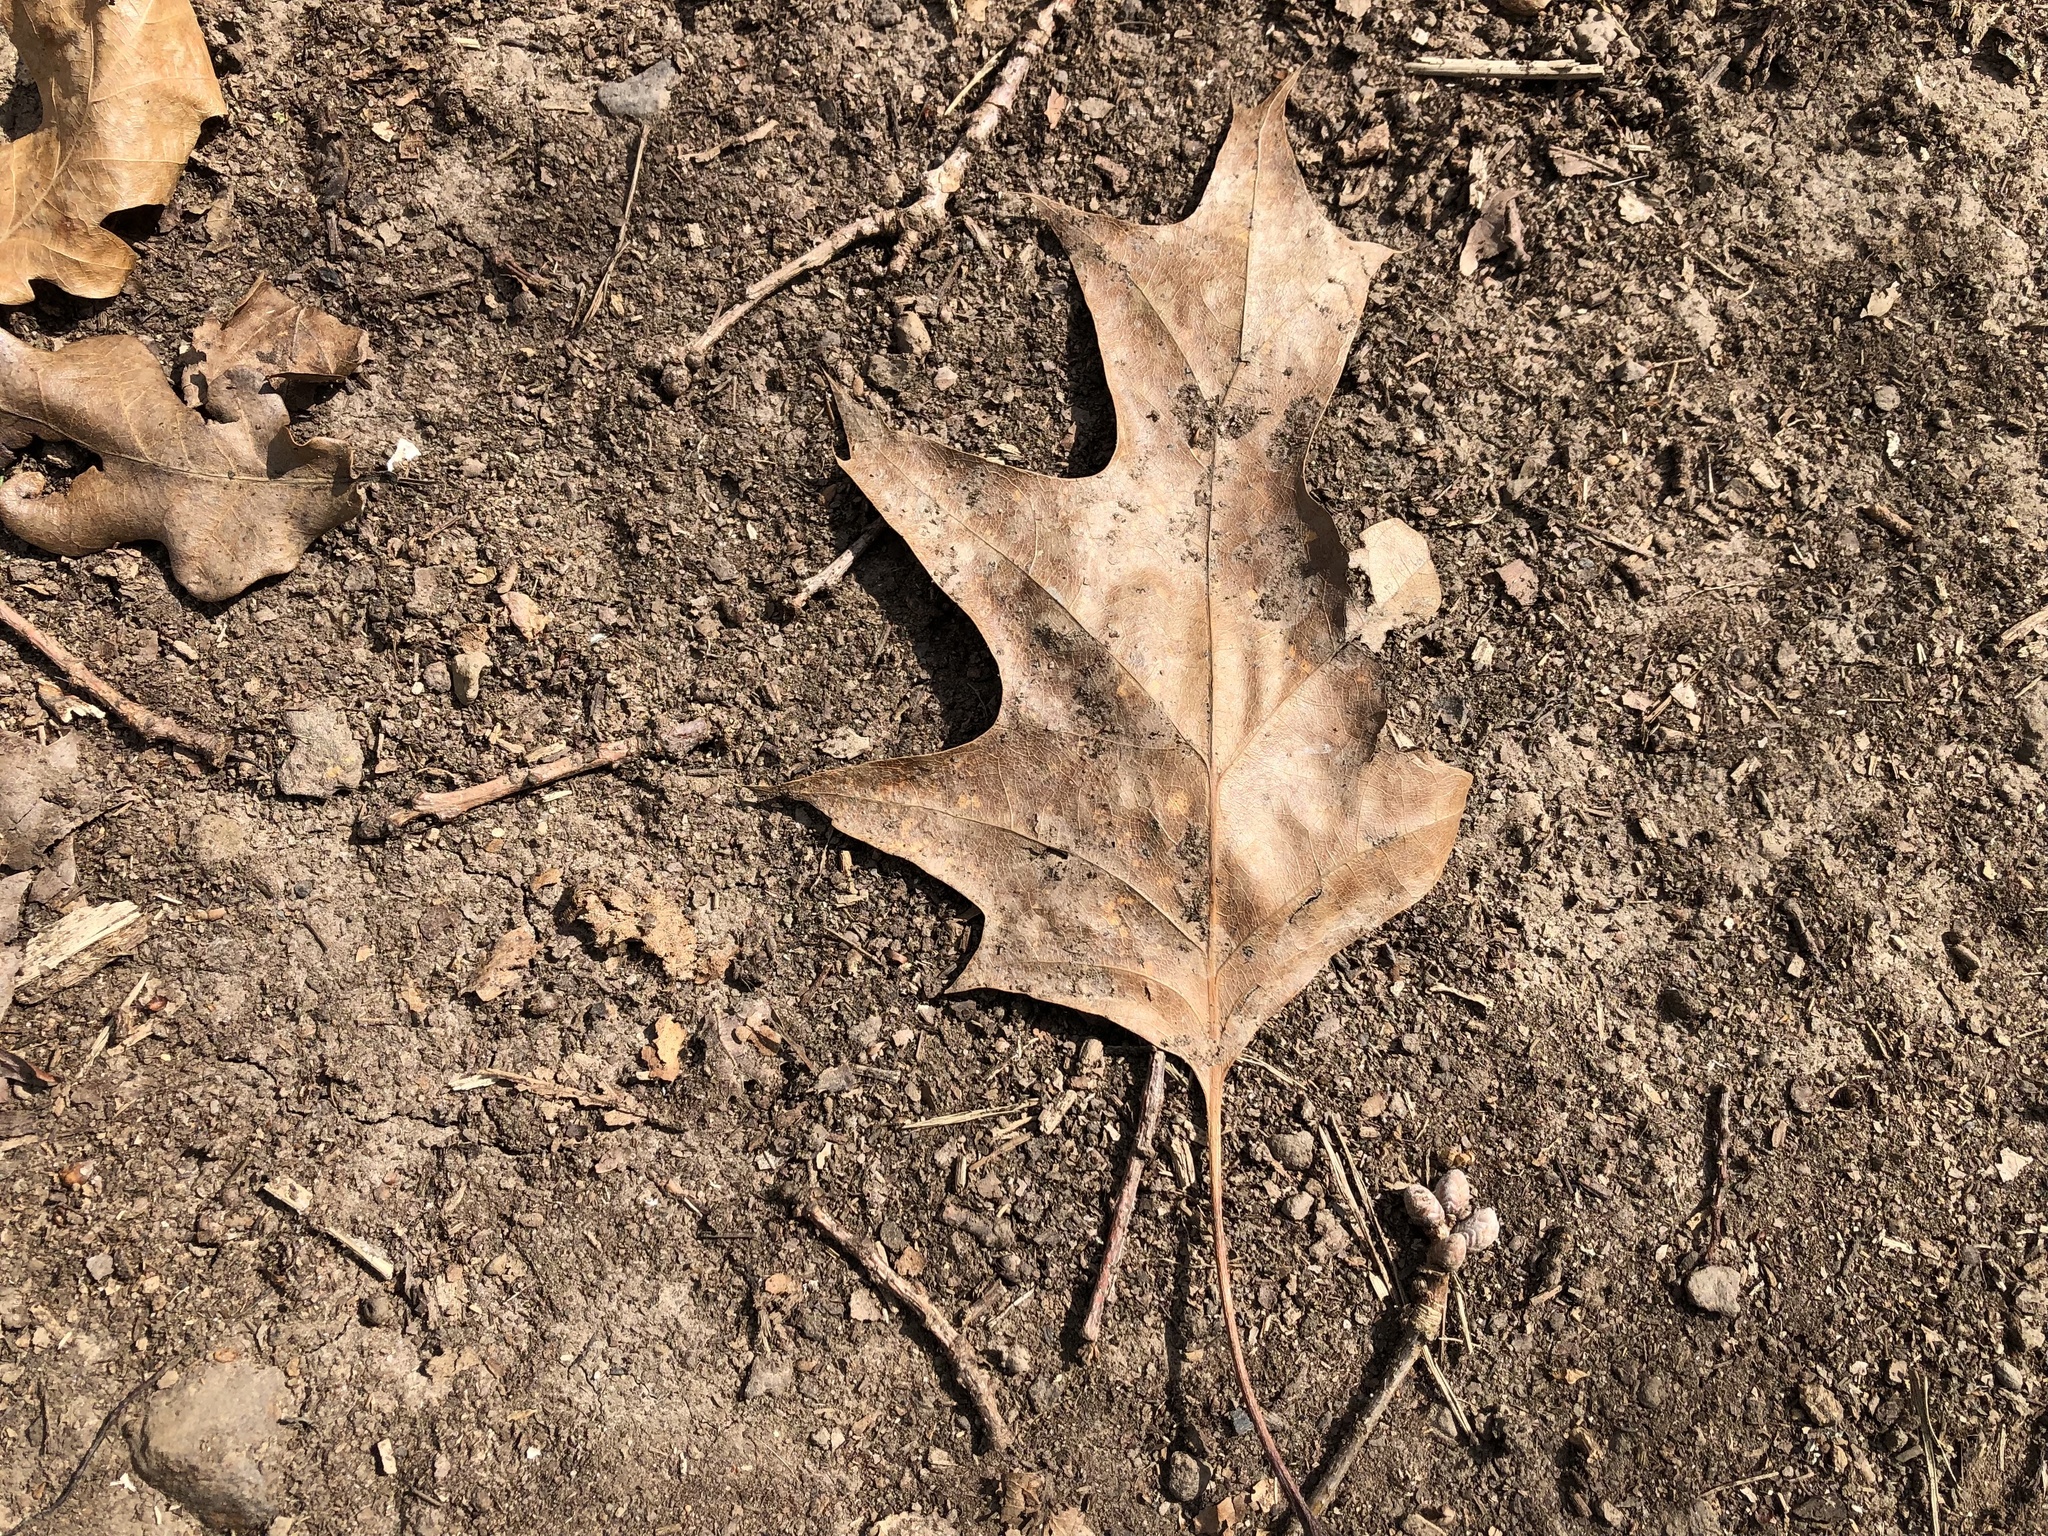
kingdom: Plantae
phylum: Tracheophyta
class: Magnoliopsida
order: Fagales
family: Fagaceae
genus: Quercus
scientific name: Quercus rubra
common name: Red oak
